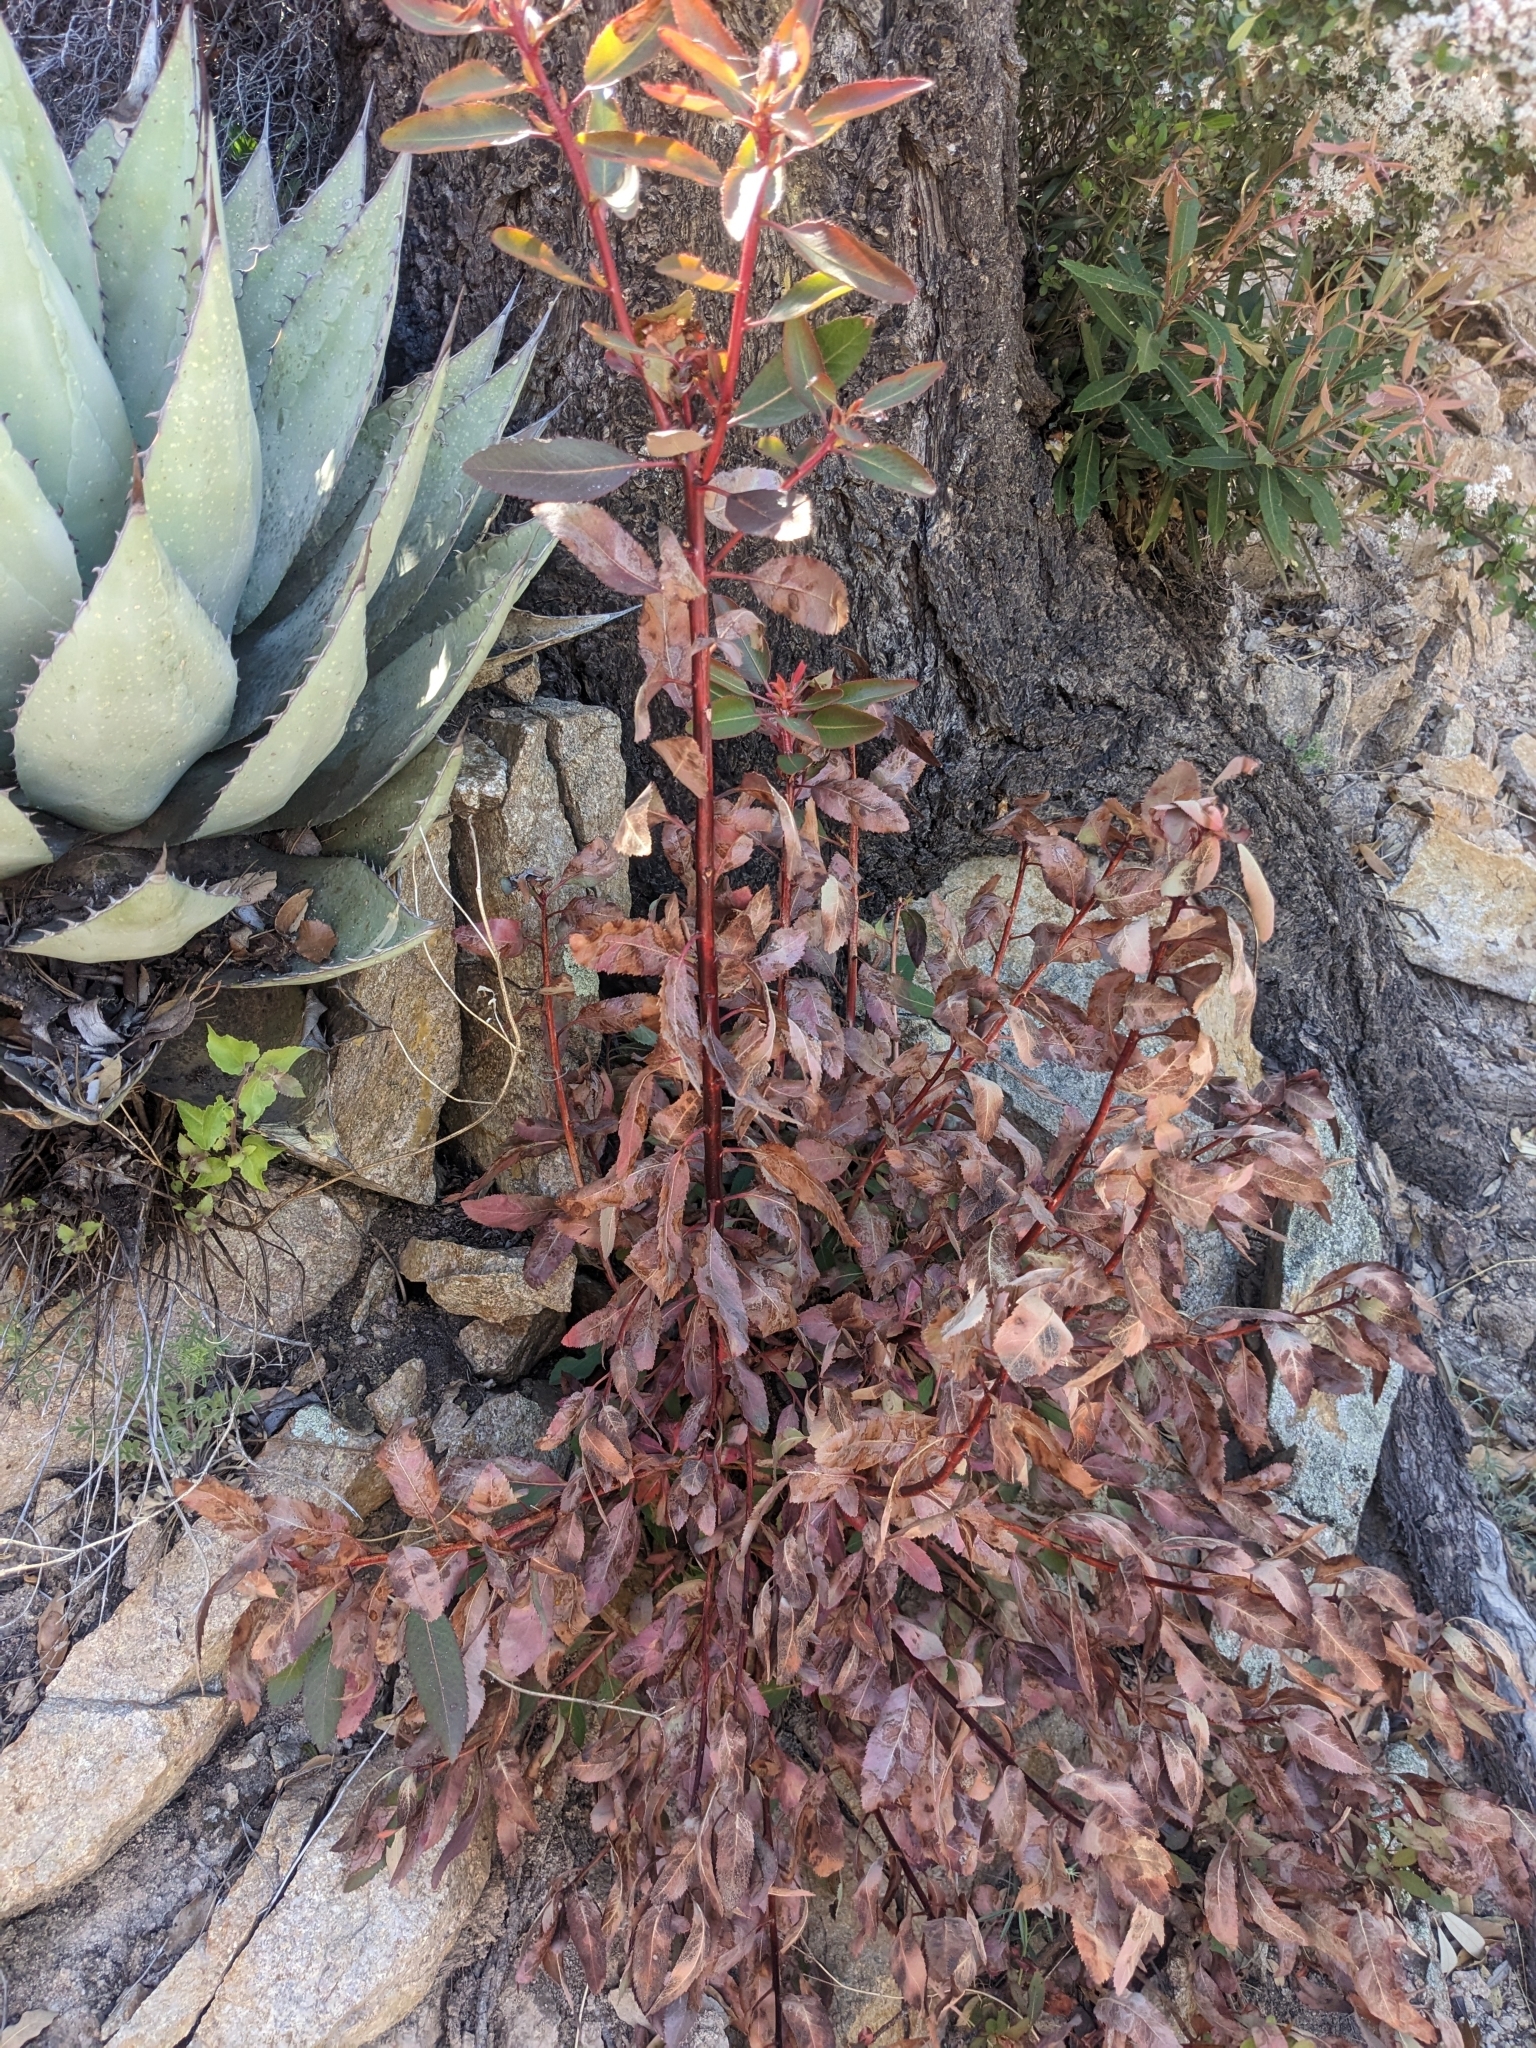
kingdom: Plantae
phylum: Tracheophyta
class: Magnoliopsida
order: Ericales
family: Ericaceae
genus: Arbutus
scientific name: Arbutus arizonica
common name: Arizona madrone
